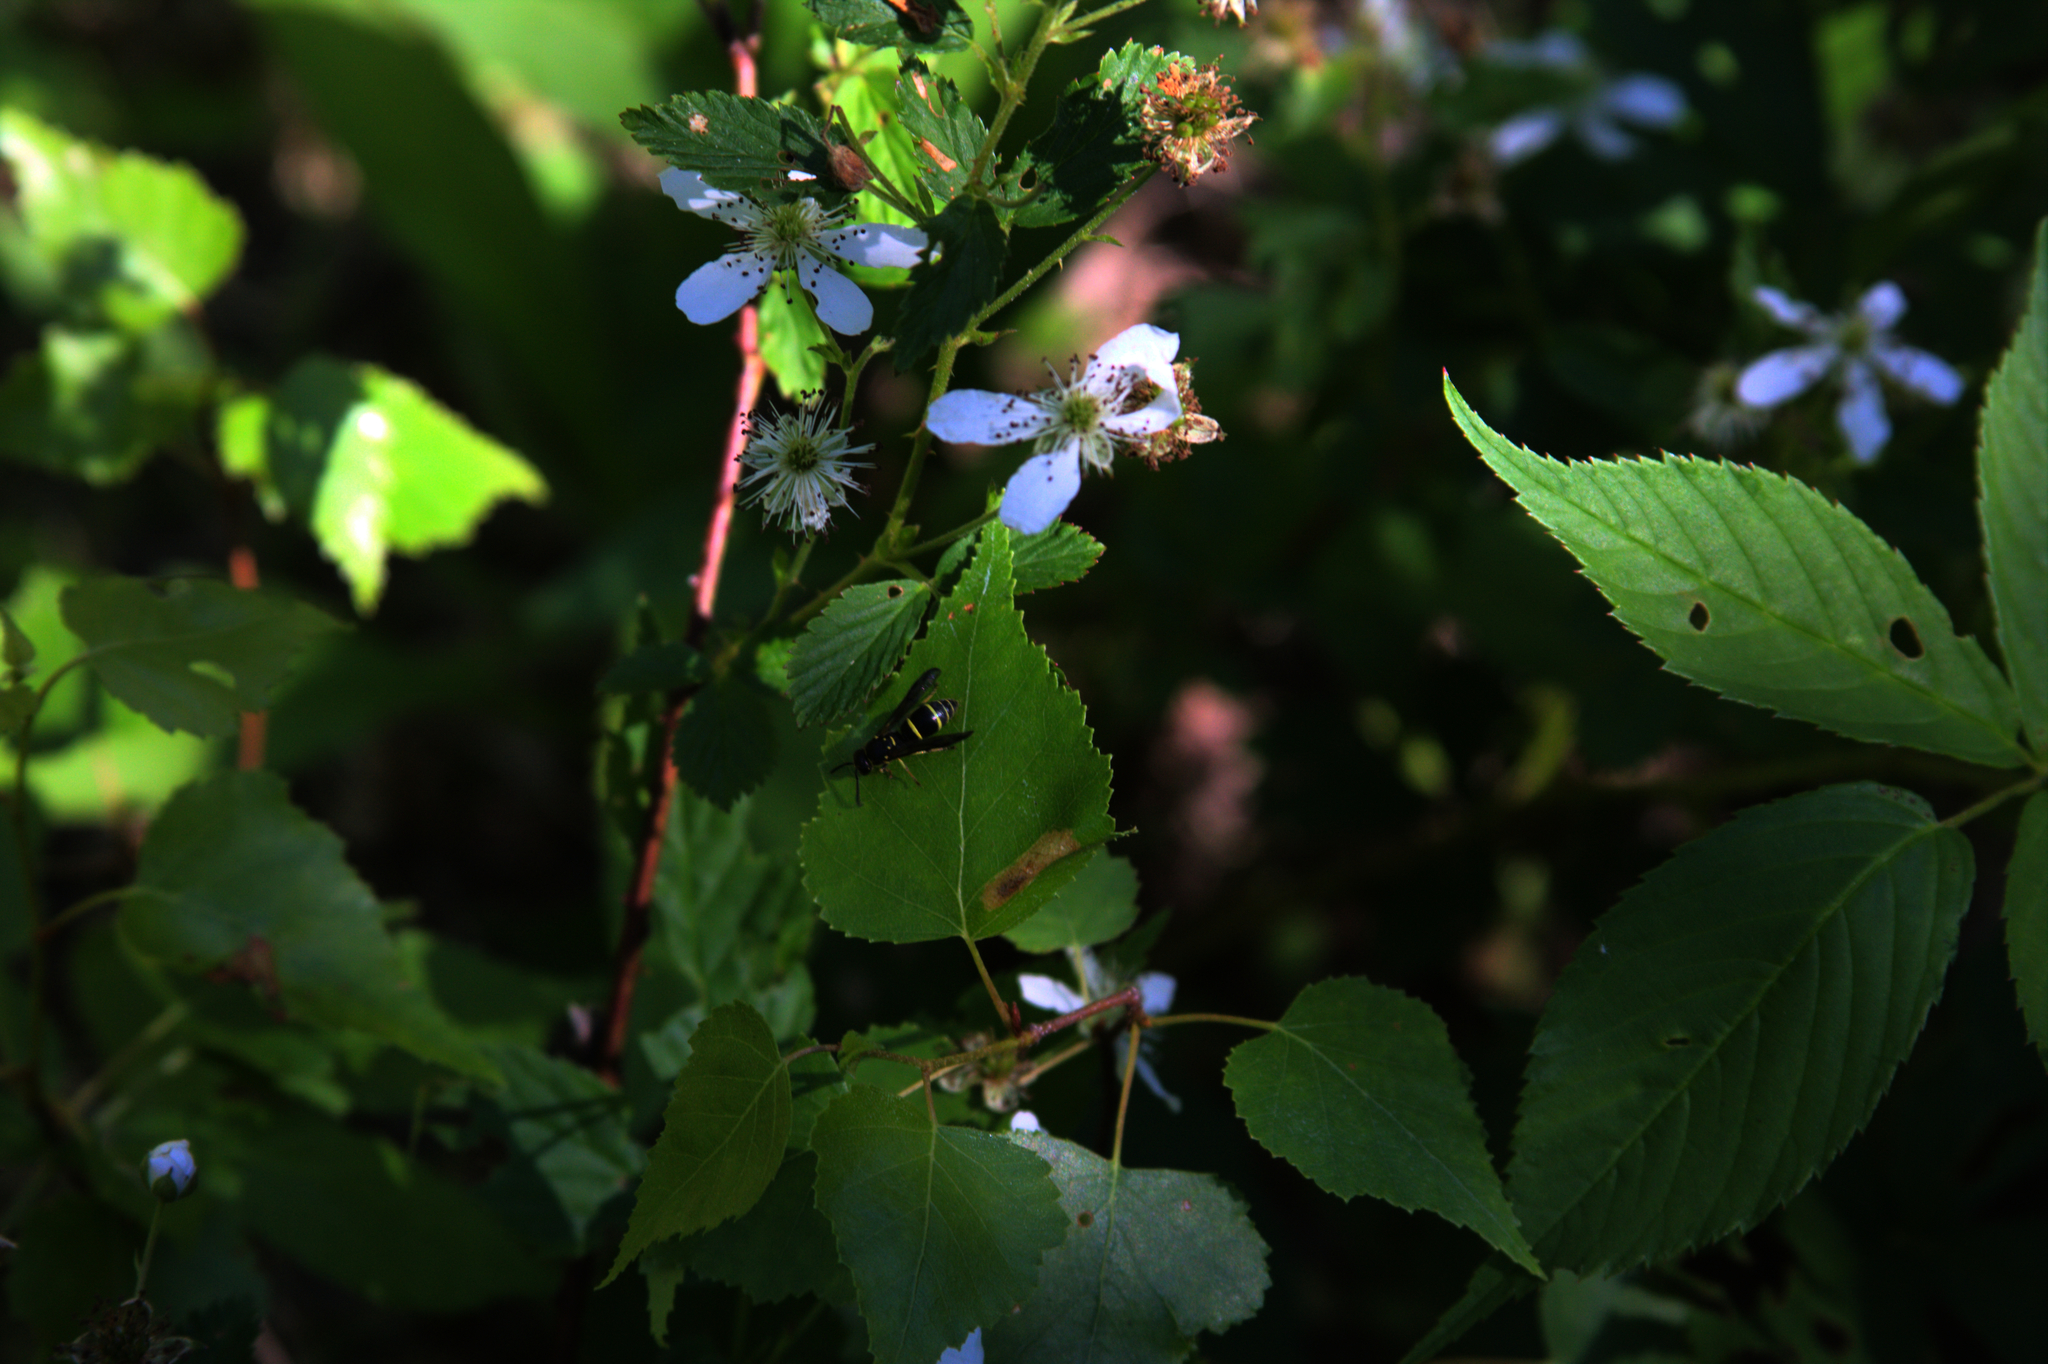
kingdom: Animalia
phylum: Arthropoda
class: Insecta
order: Hymenoptera
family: Vespidae
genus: Ancistrocerus
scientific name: Ancistrocerus adiabatus
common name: Bramble mason wasp
